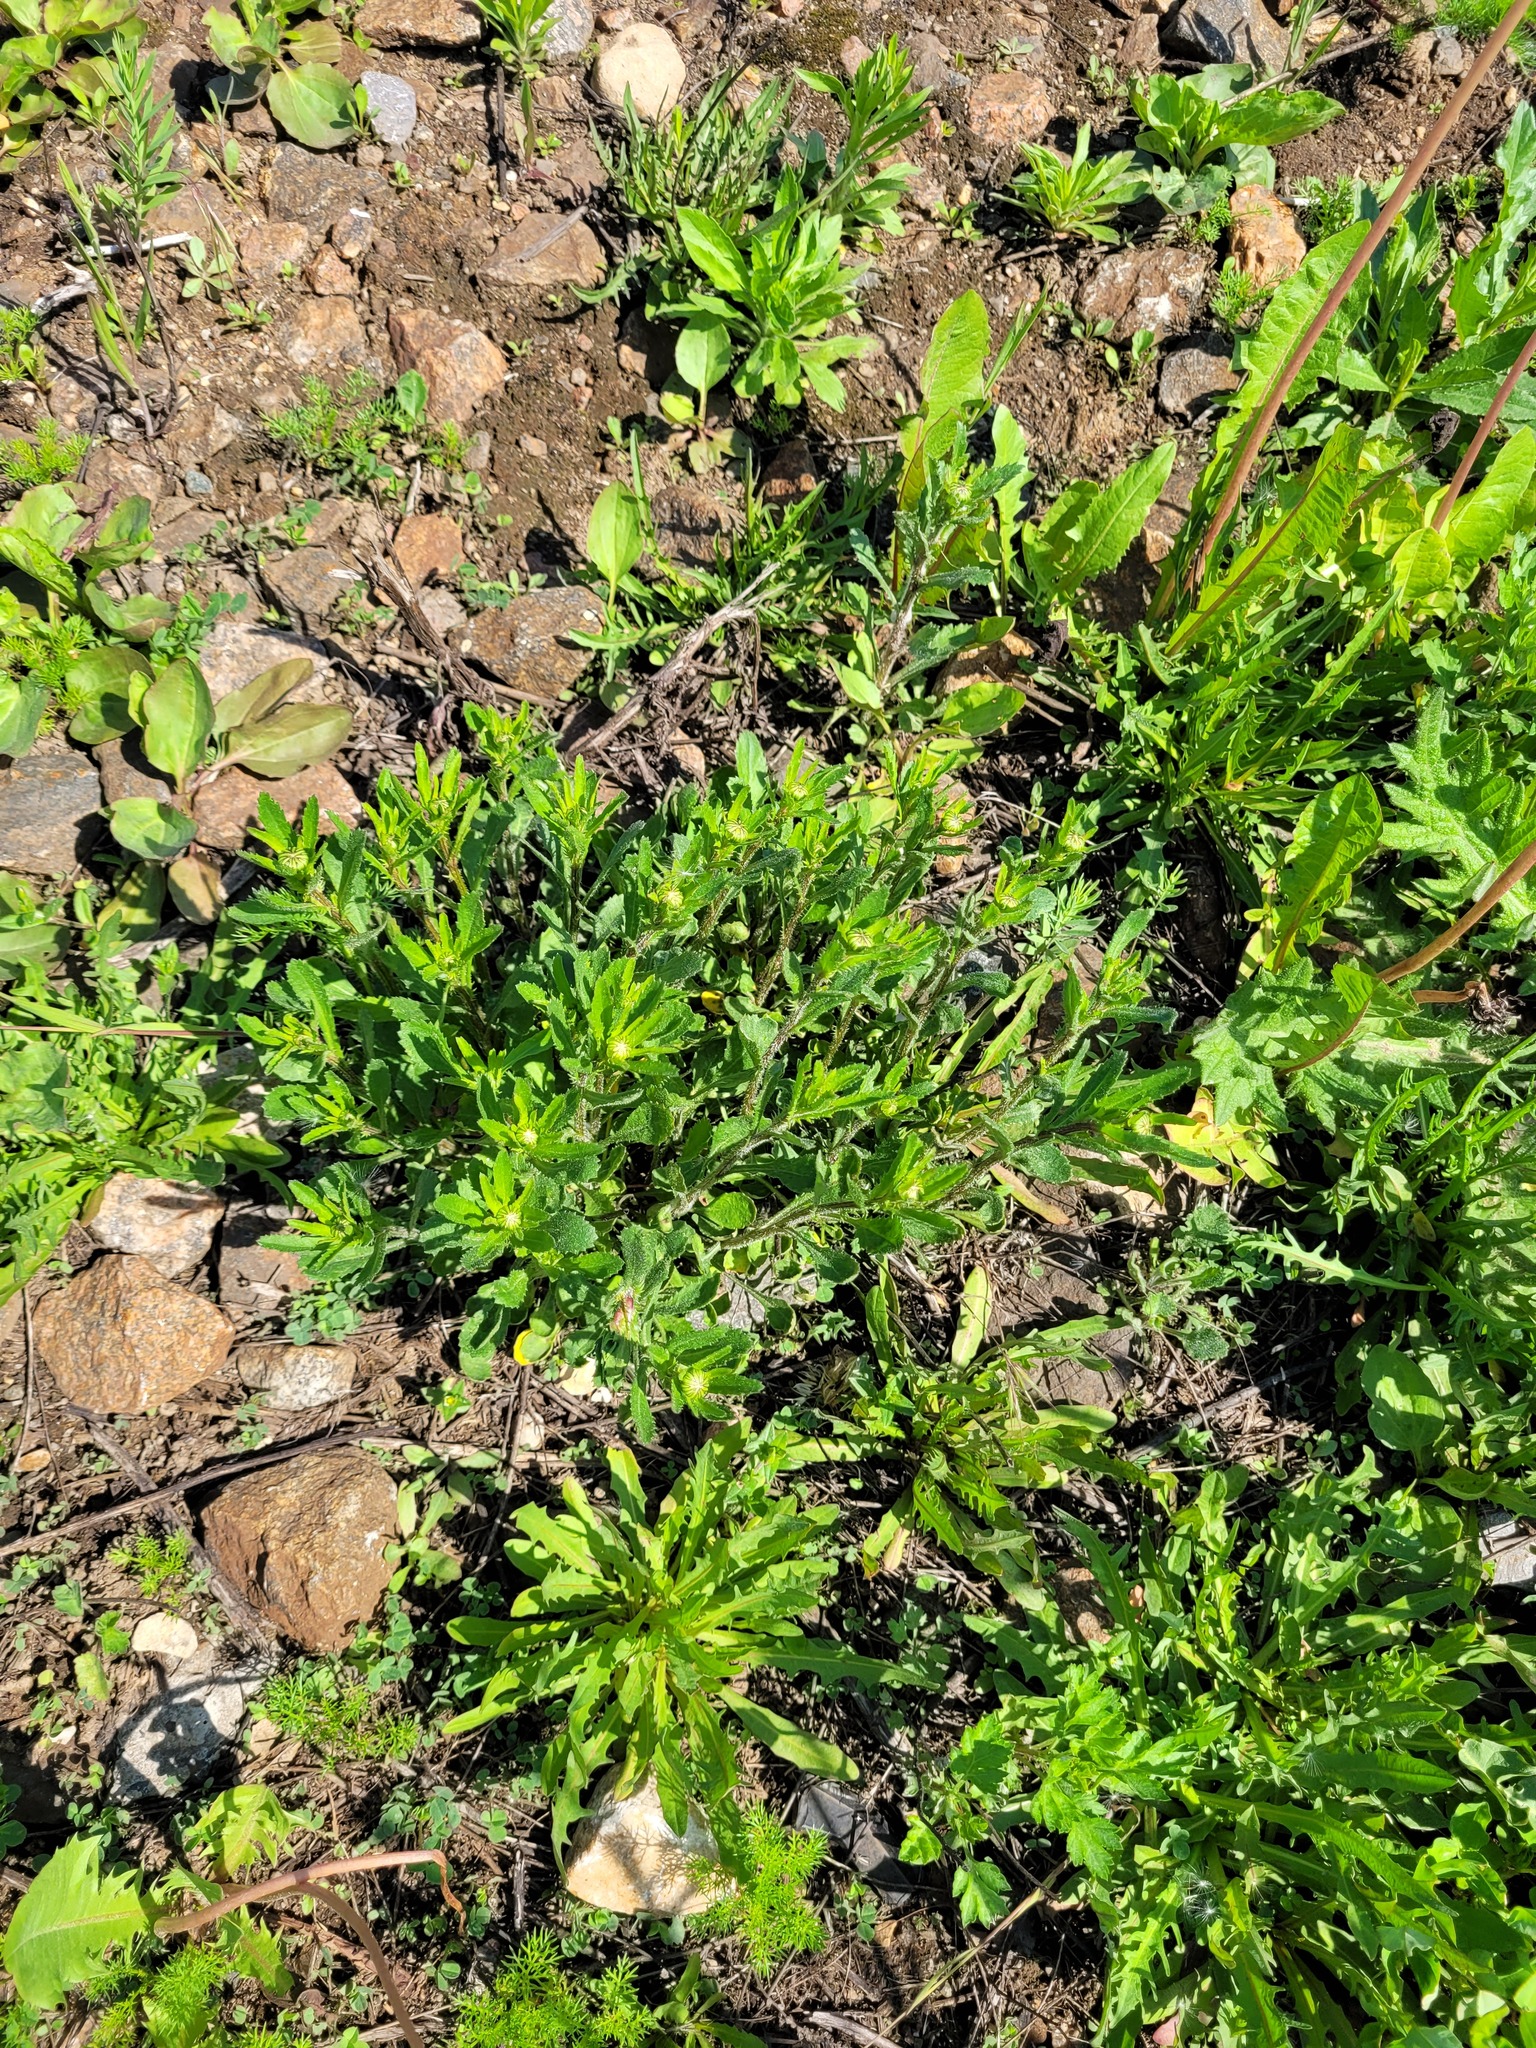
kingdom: Plantae
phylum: Tracheophyta
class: Magnoliopsida
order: Asterales
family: Asteraceae
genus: Leucanthemum
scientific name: Leucanthemum vulgare
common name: Oxeye daisy
